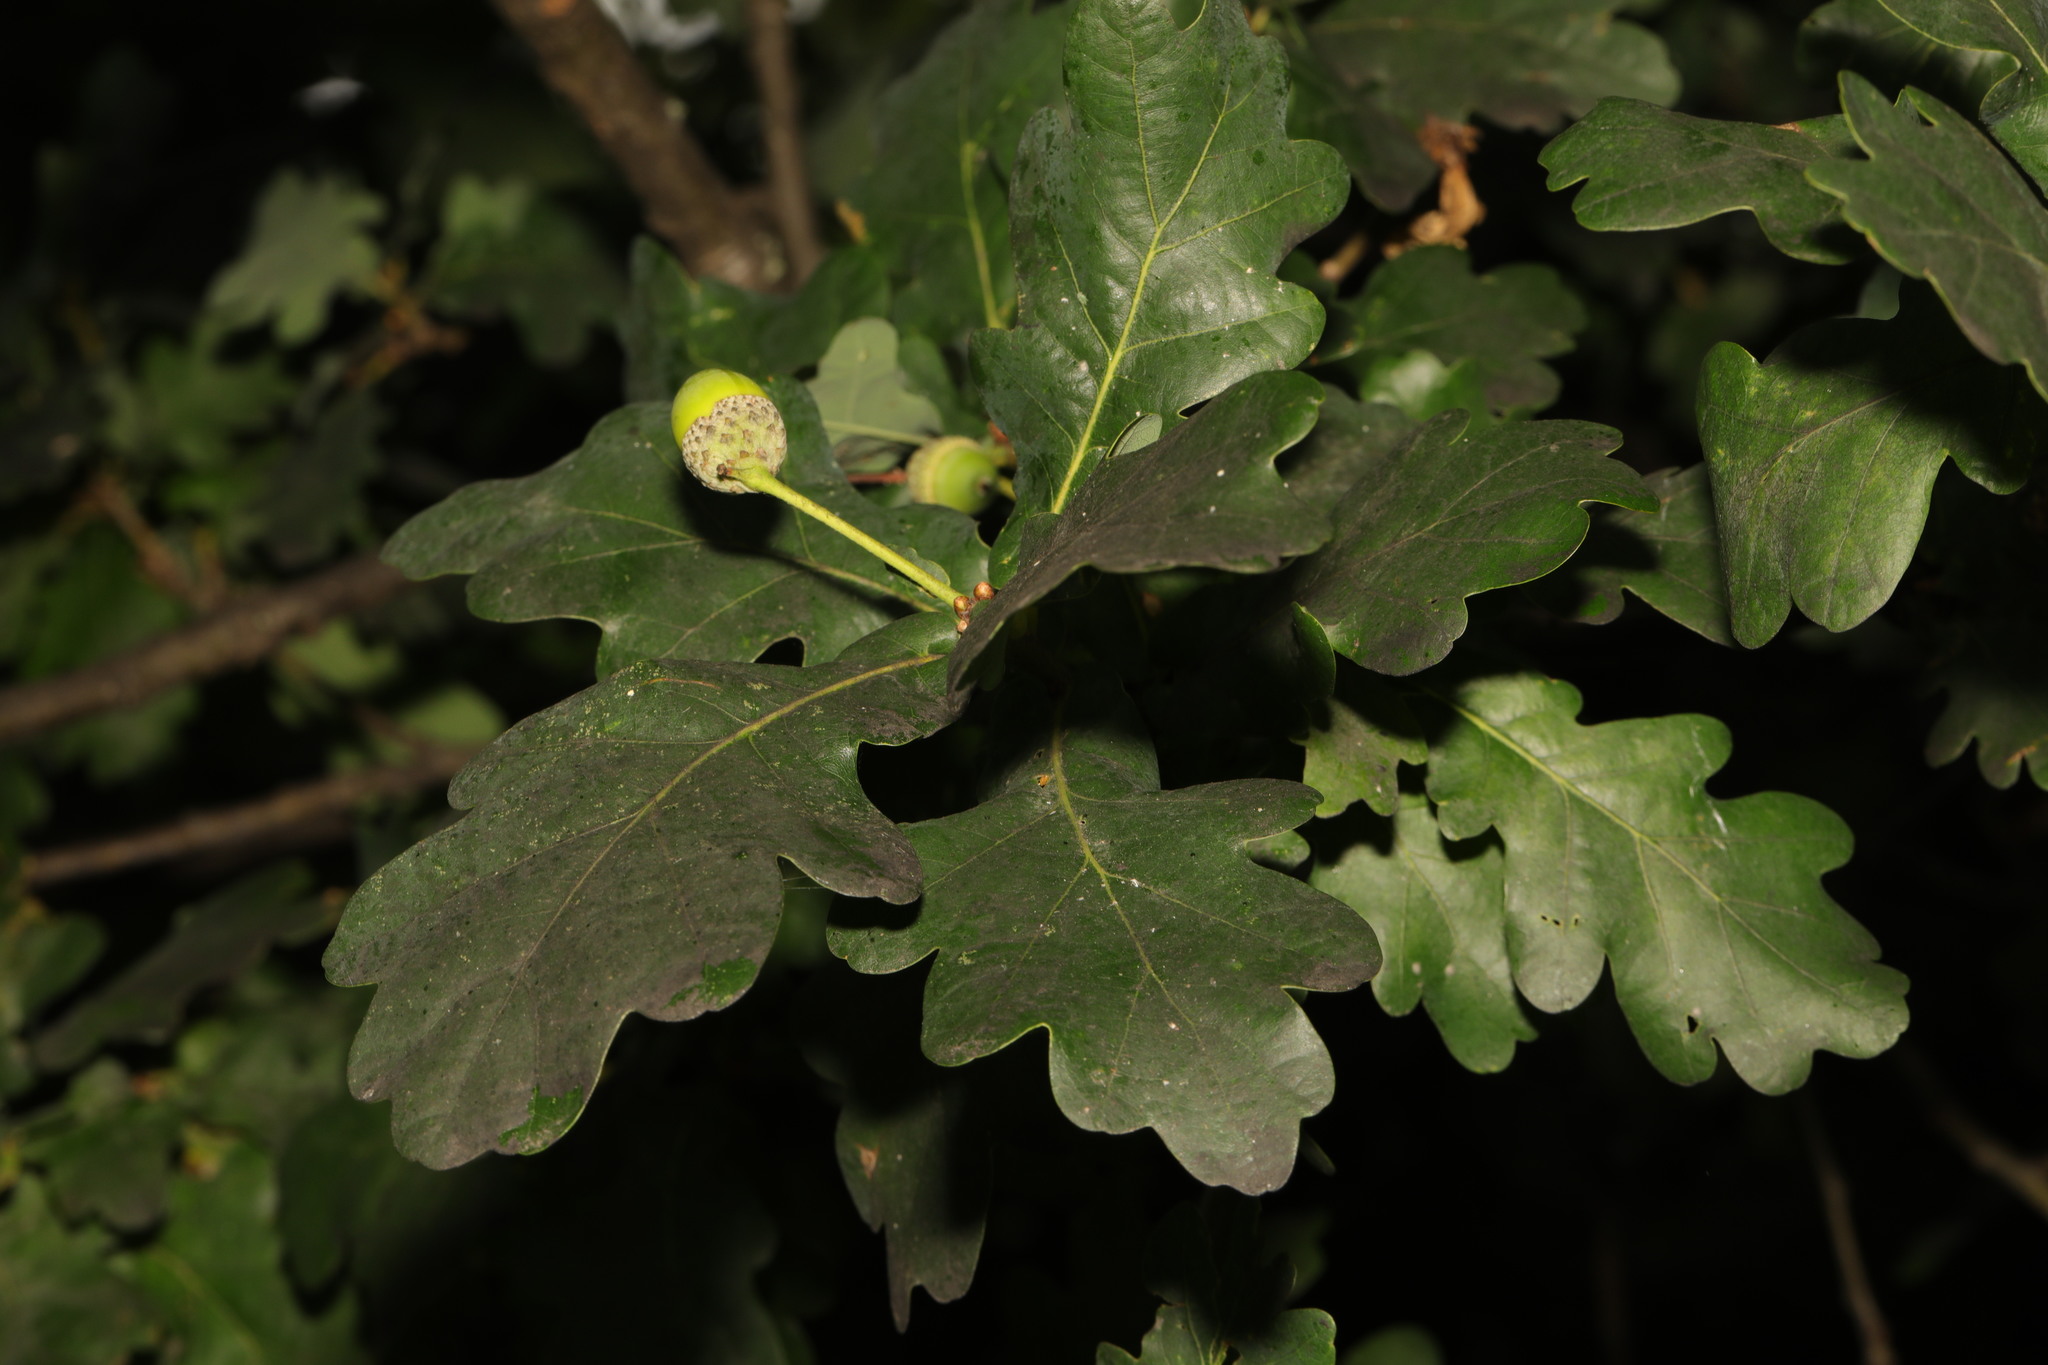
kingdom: Plantae
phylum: Tracheophyta
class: Magnoliopsida
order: Fagales
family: Fagaceae
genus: Quercus
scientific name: Quercus robur
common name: Pedunculate oak
